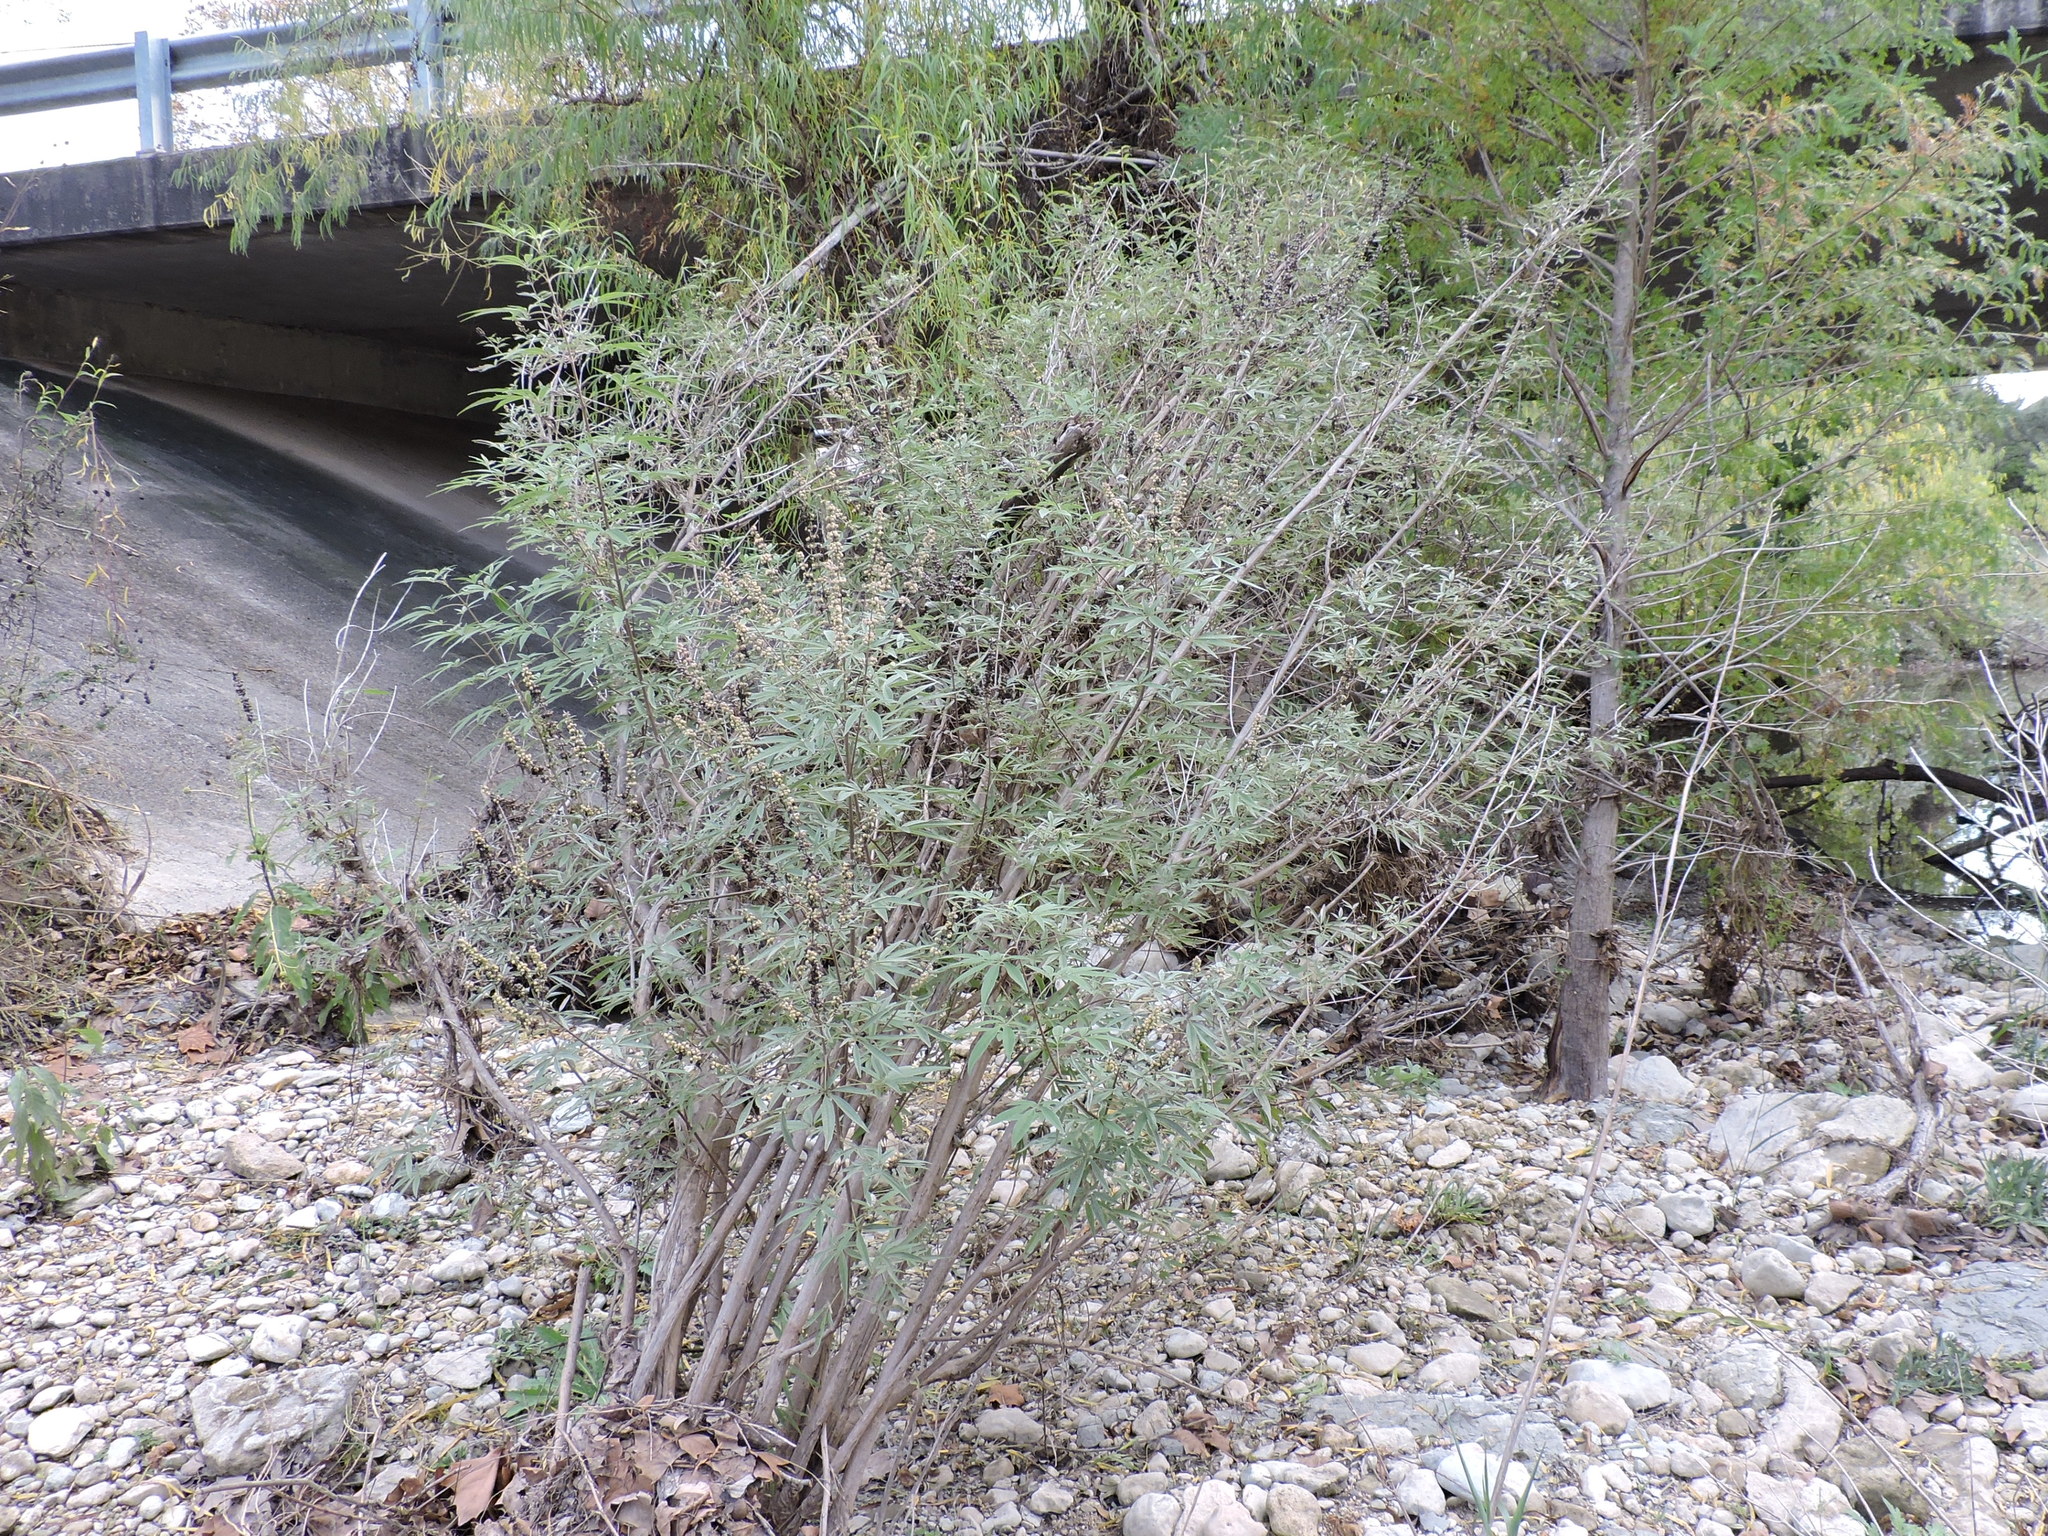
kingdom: Plantae
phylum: Tracheophyta
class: Magnoliopsida
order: Lamiales
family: Lamiaceae
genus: Vitex
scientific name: Vitex agnus-castus
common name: Chasteberry
